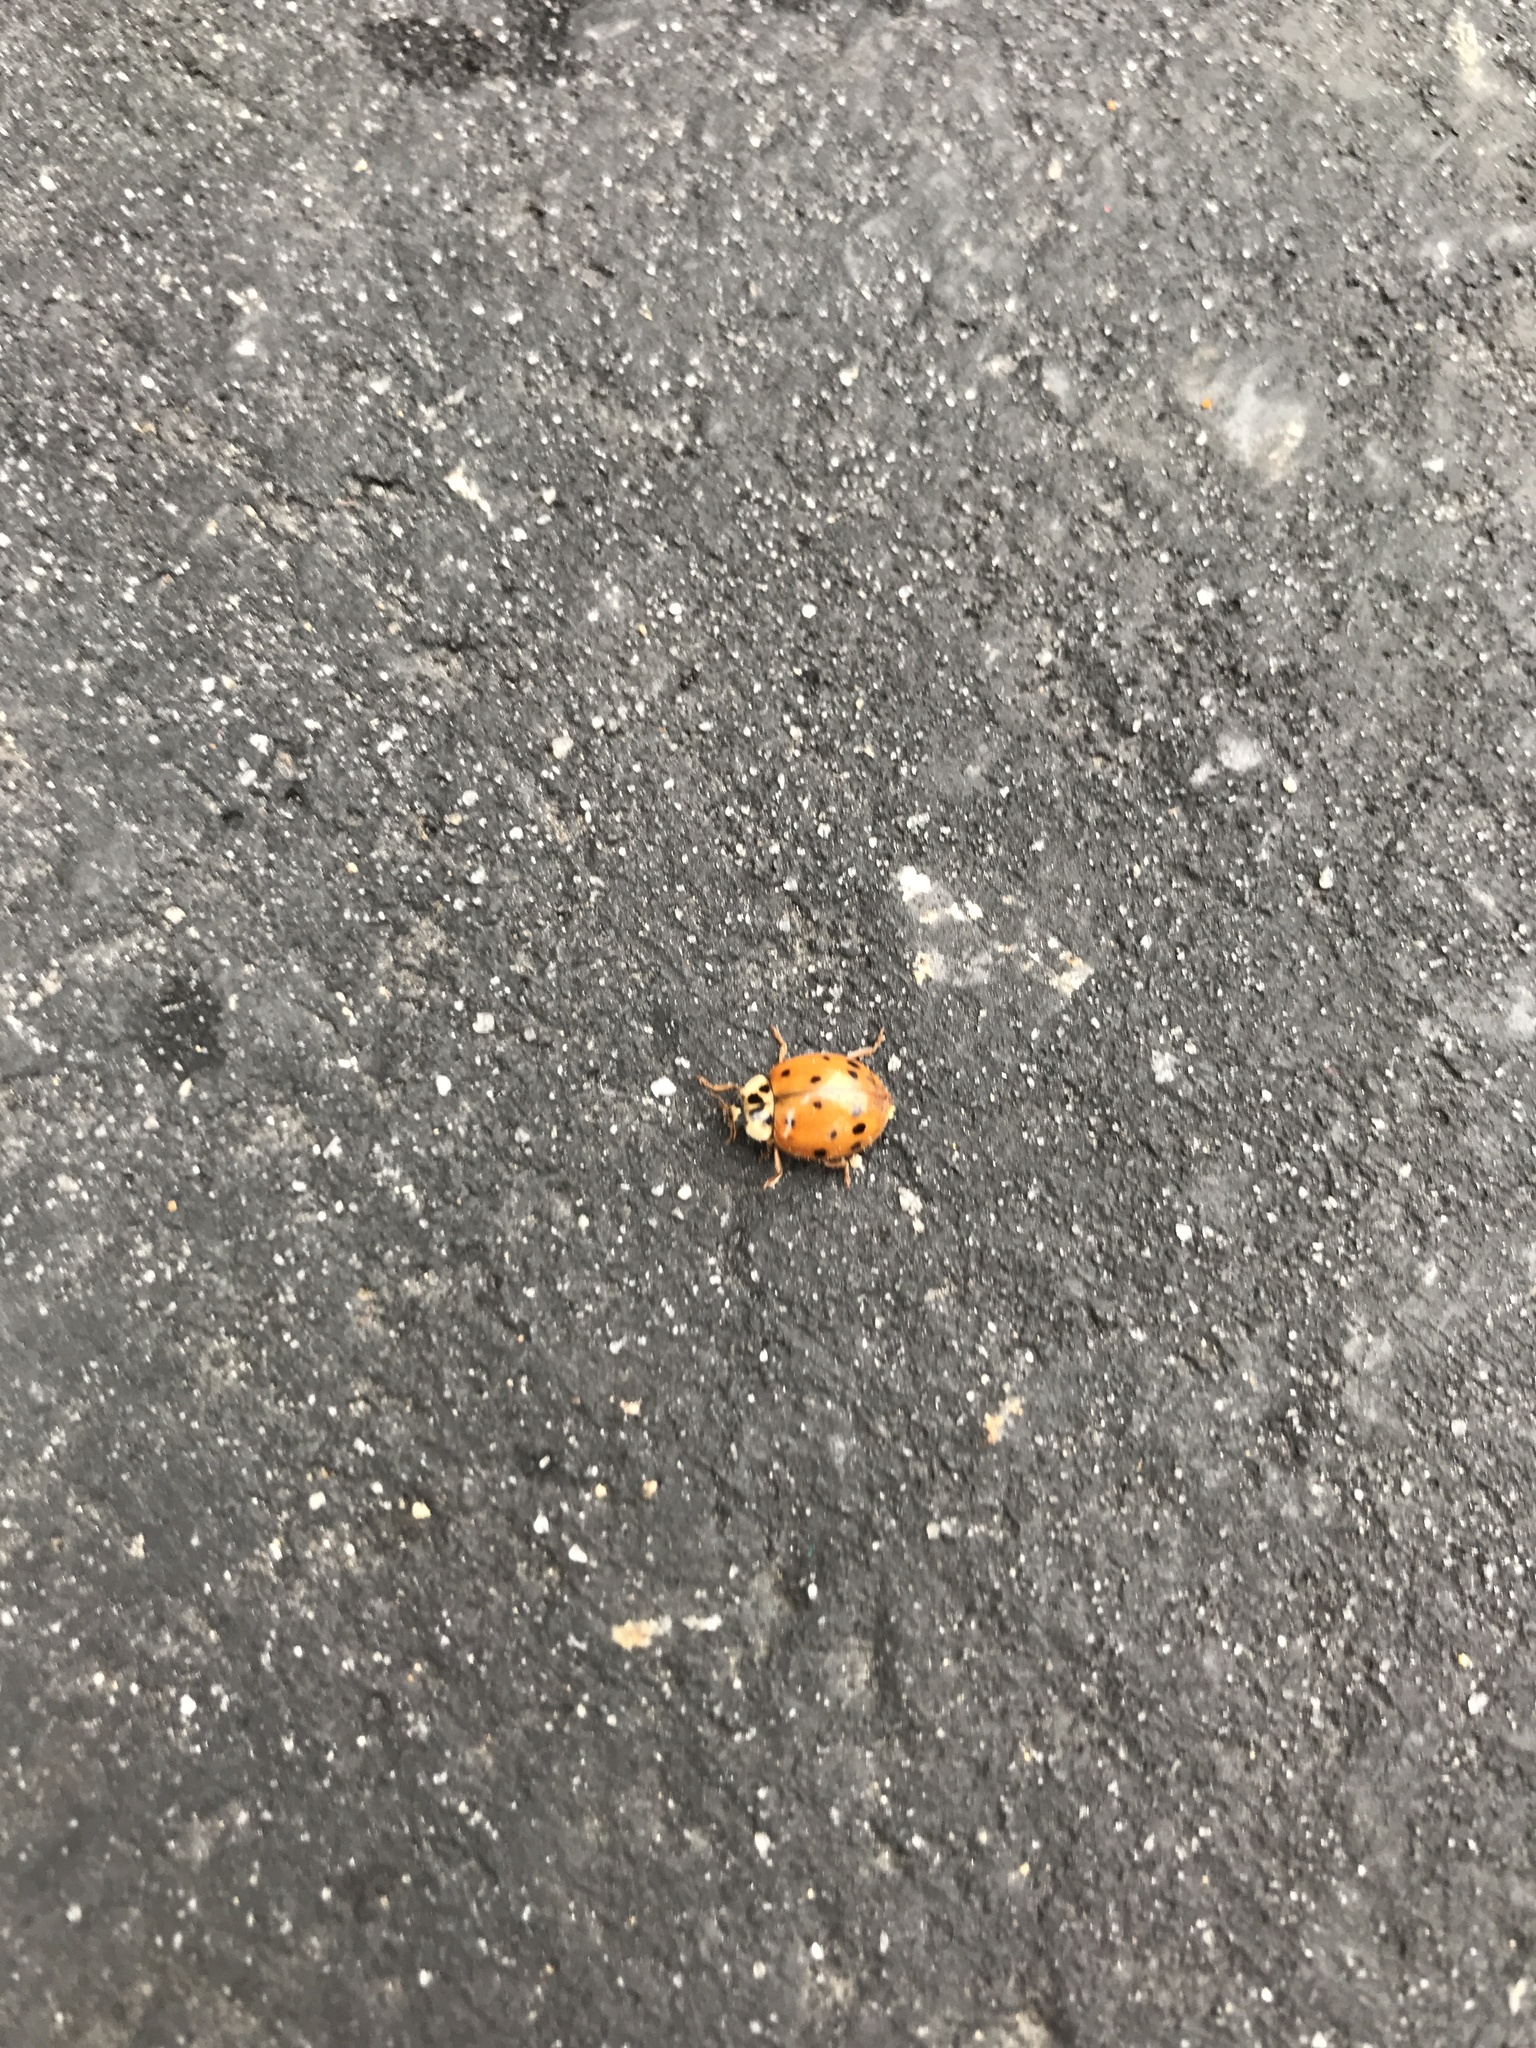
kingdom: Animalia
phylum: Arthropoda
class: Insecta
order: Coleoptera
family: Coccinellidae
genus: Harmonia
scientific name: Harmonia axyridis
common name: Harlequin ladybird
